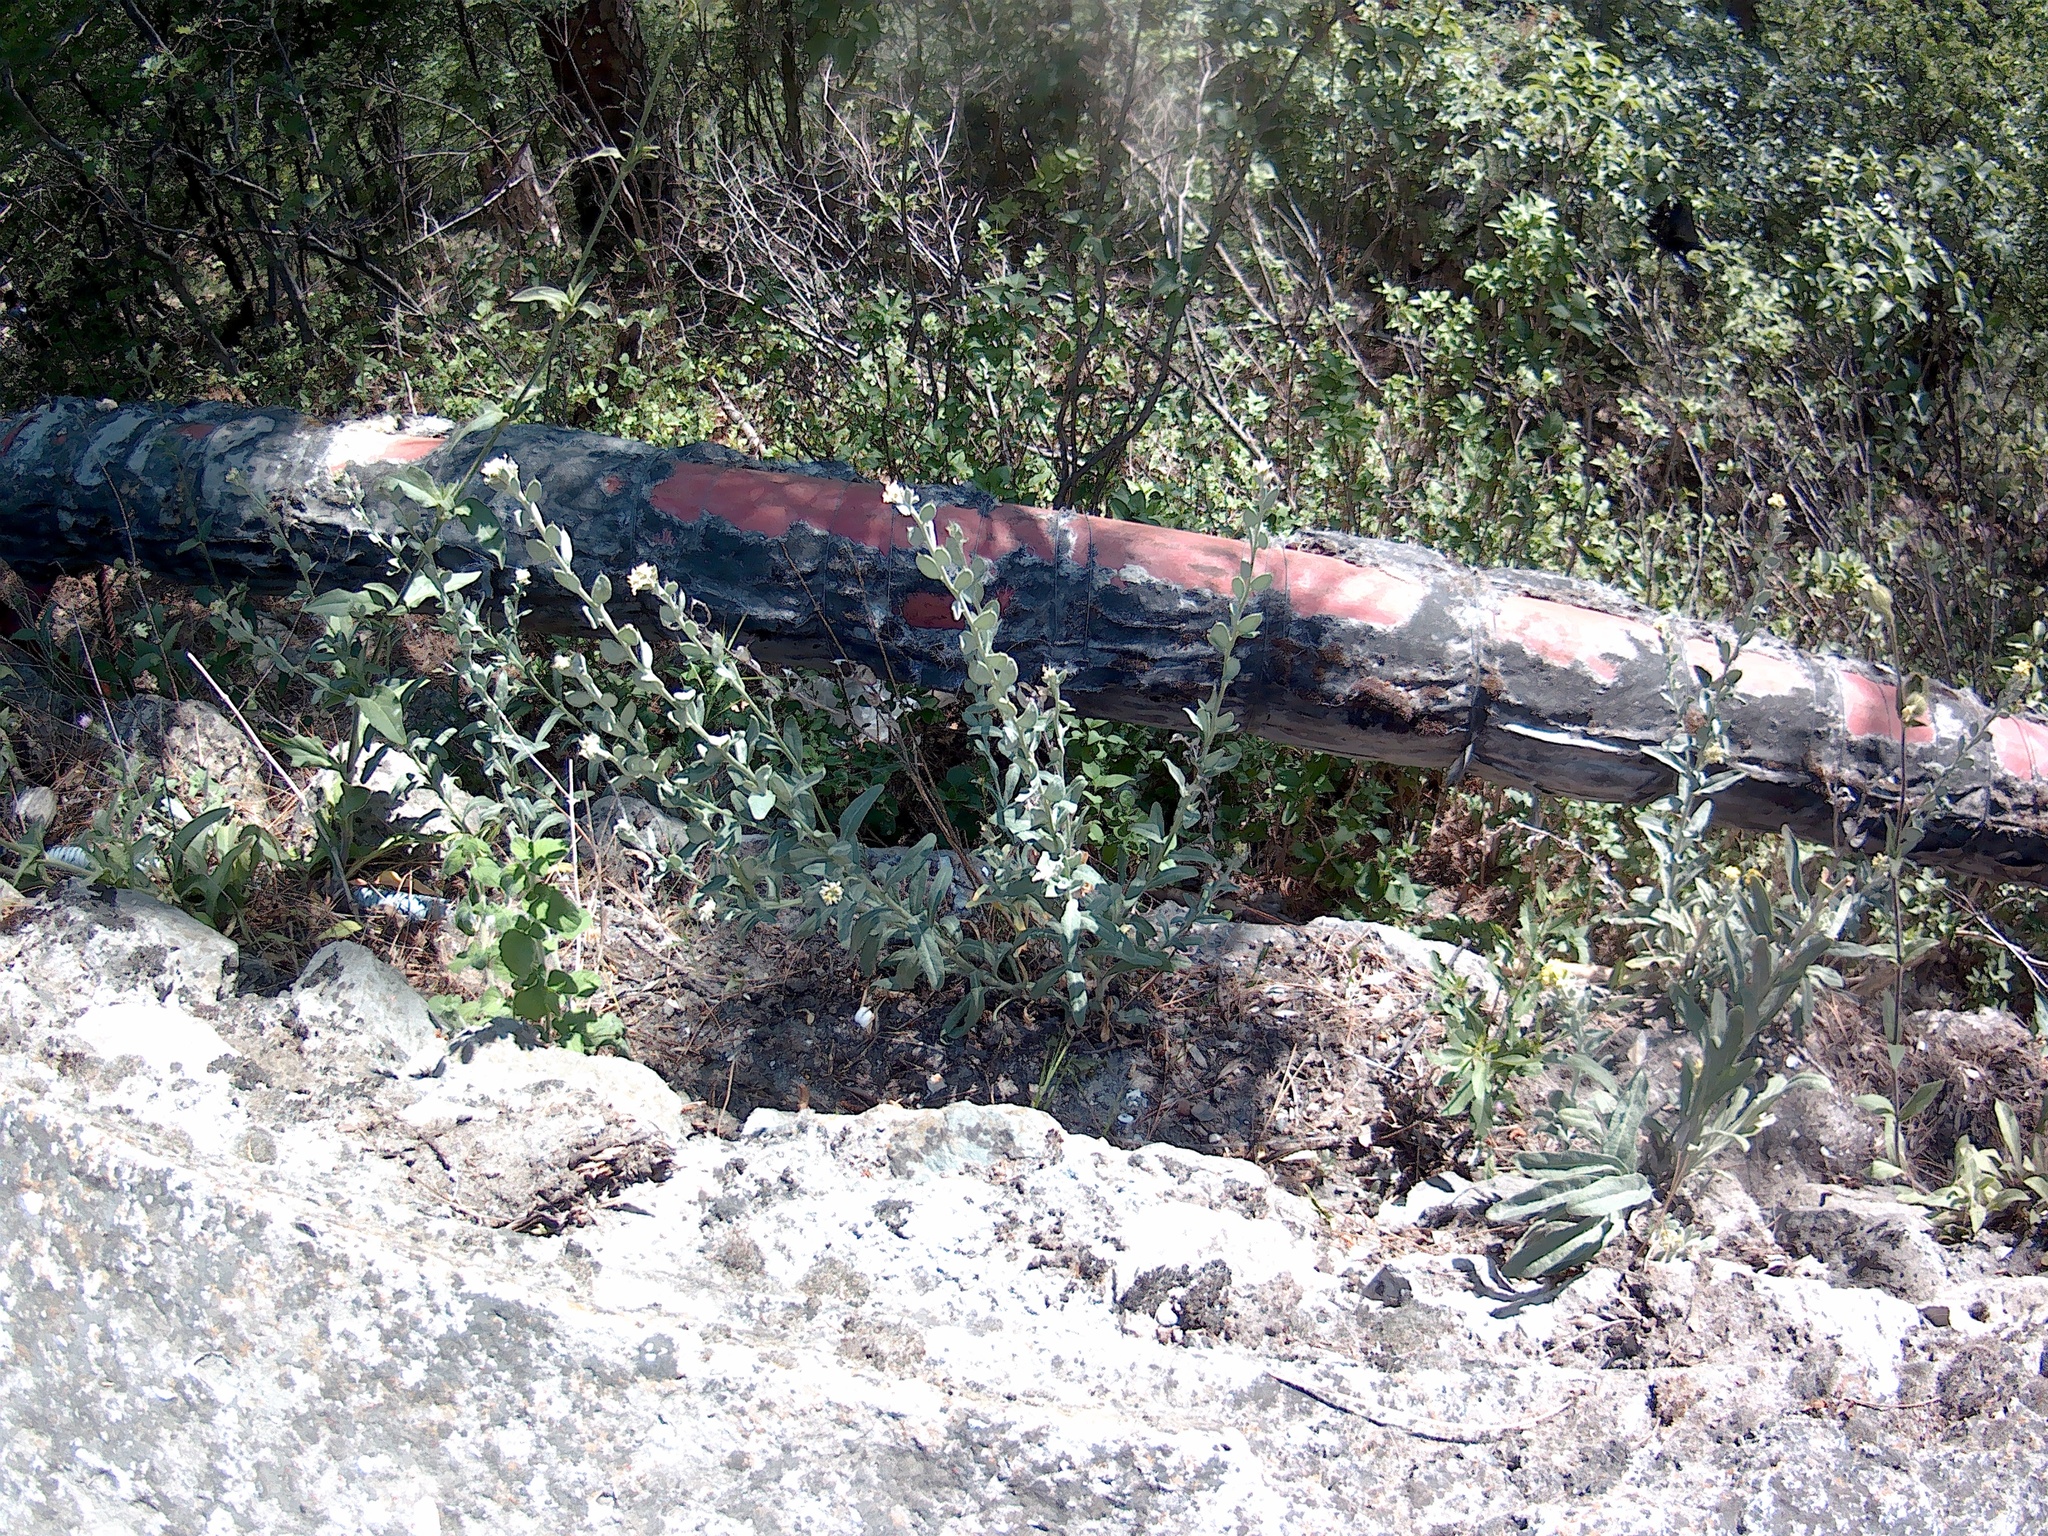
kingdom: Plantae
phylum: Tracheophyta
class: Magnoliopsida
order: Brassicales
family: Brassicaceae
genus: Fibigia
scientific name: Fibigia clypeata
